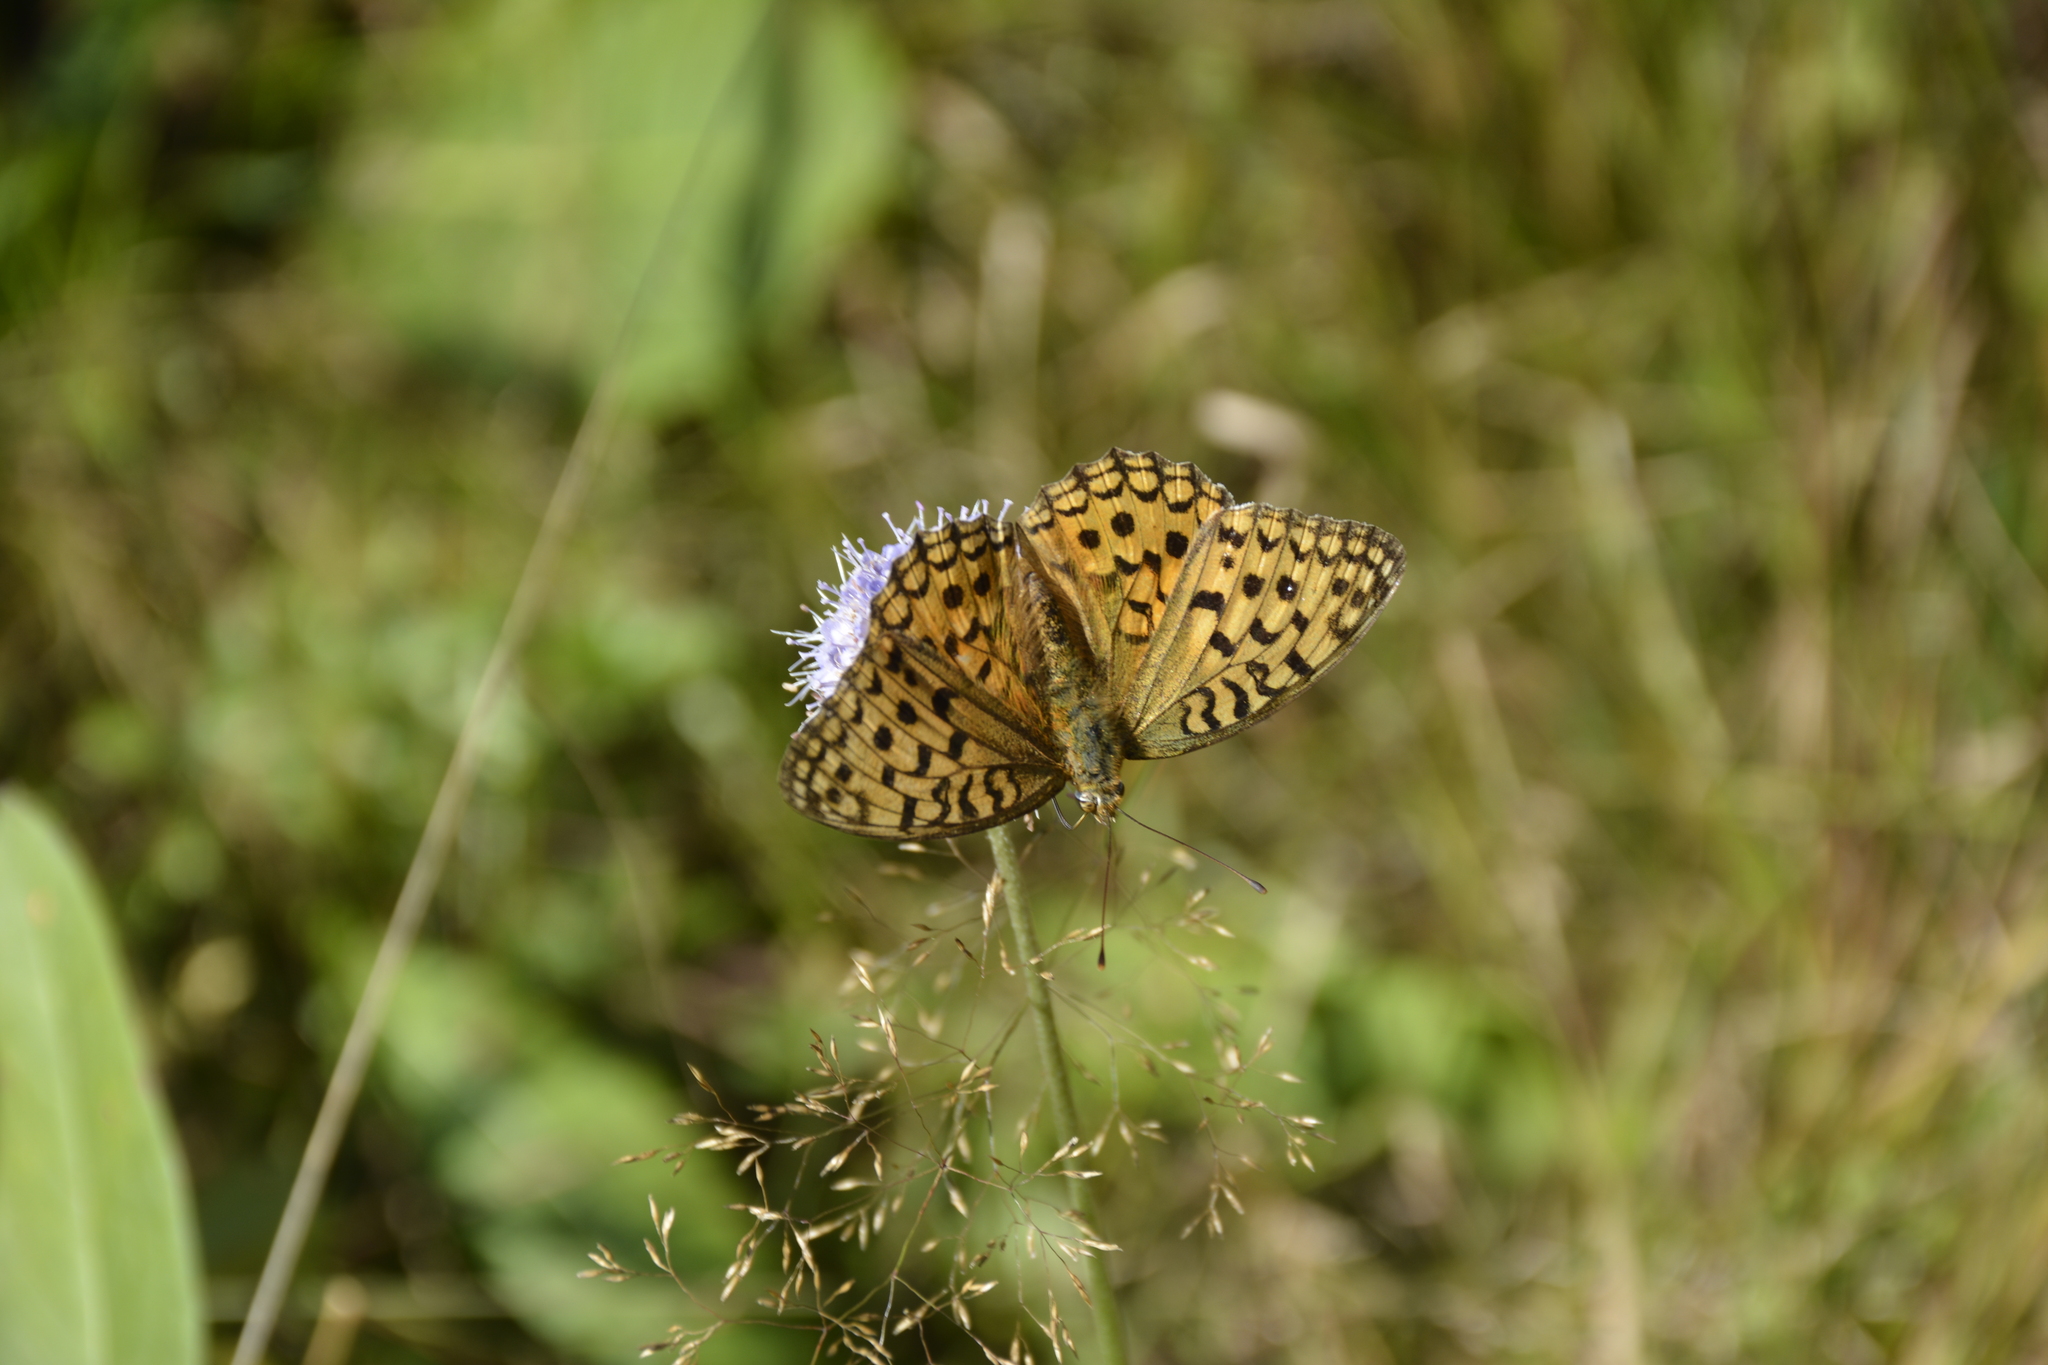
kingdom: Animalia
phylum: Arthropoda
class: Insecta
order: Lepidoptera
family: Nymphalidae
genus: Fabriciana
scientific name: Fabriciana adippe
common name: High brown fritillary
